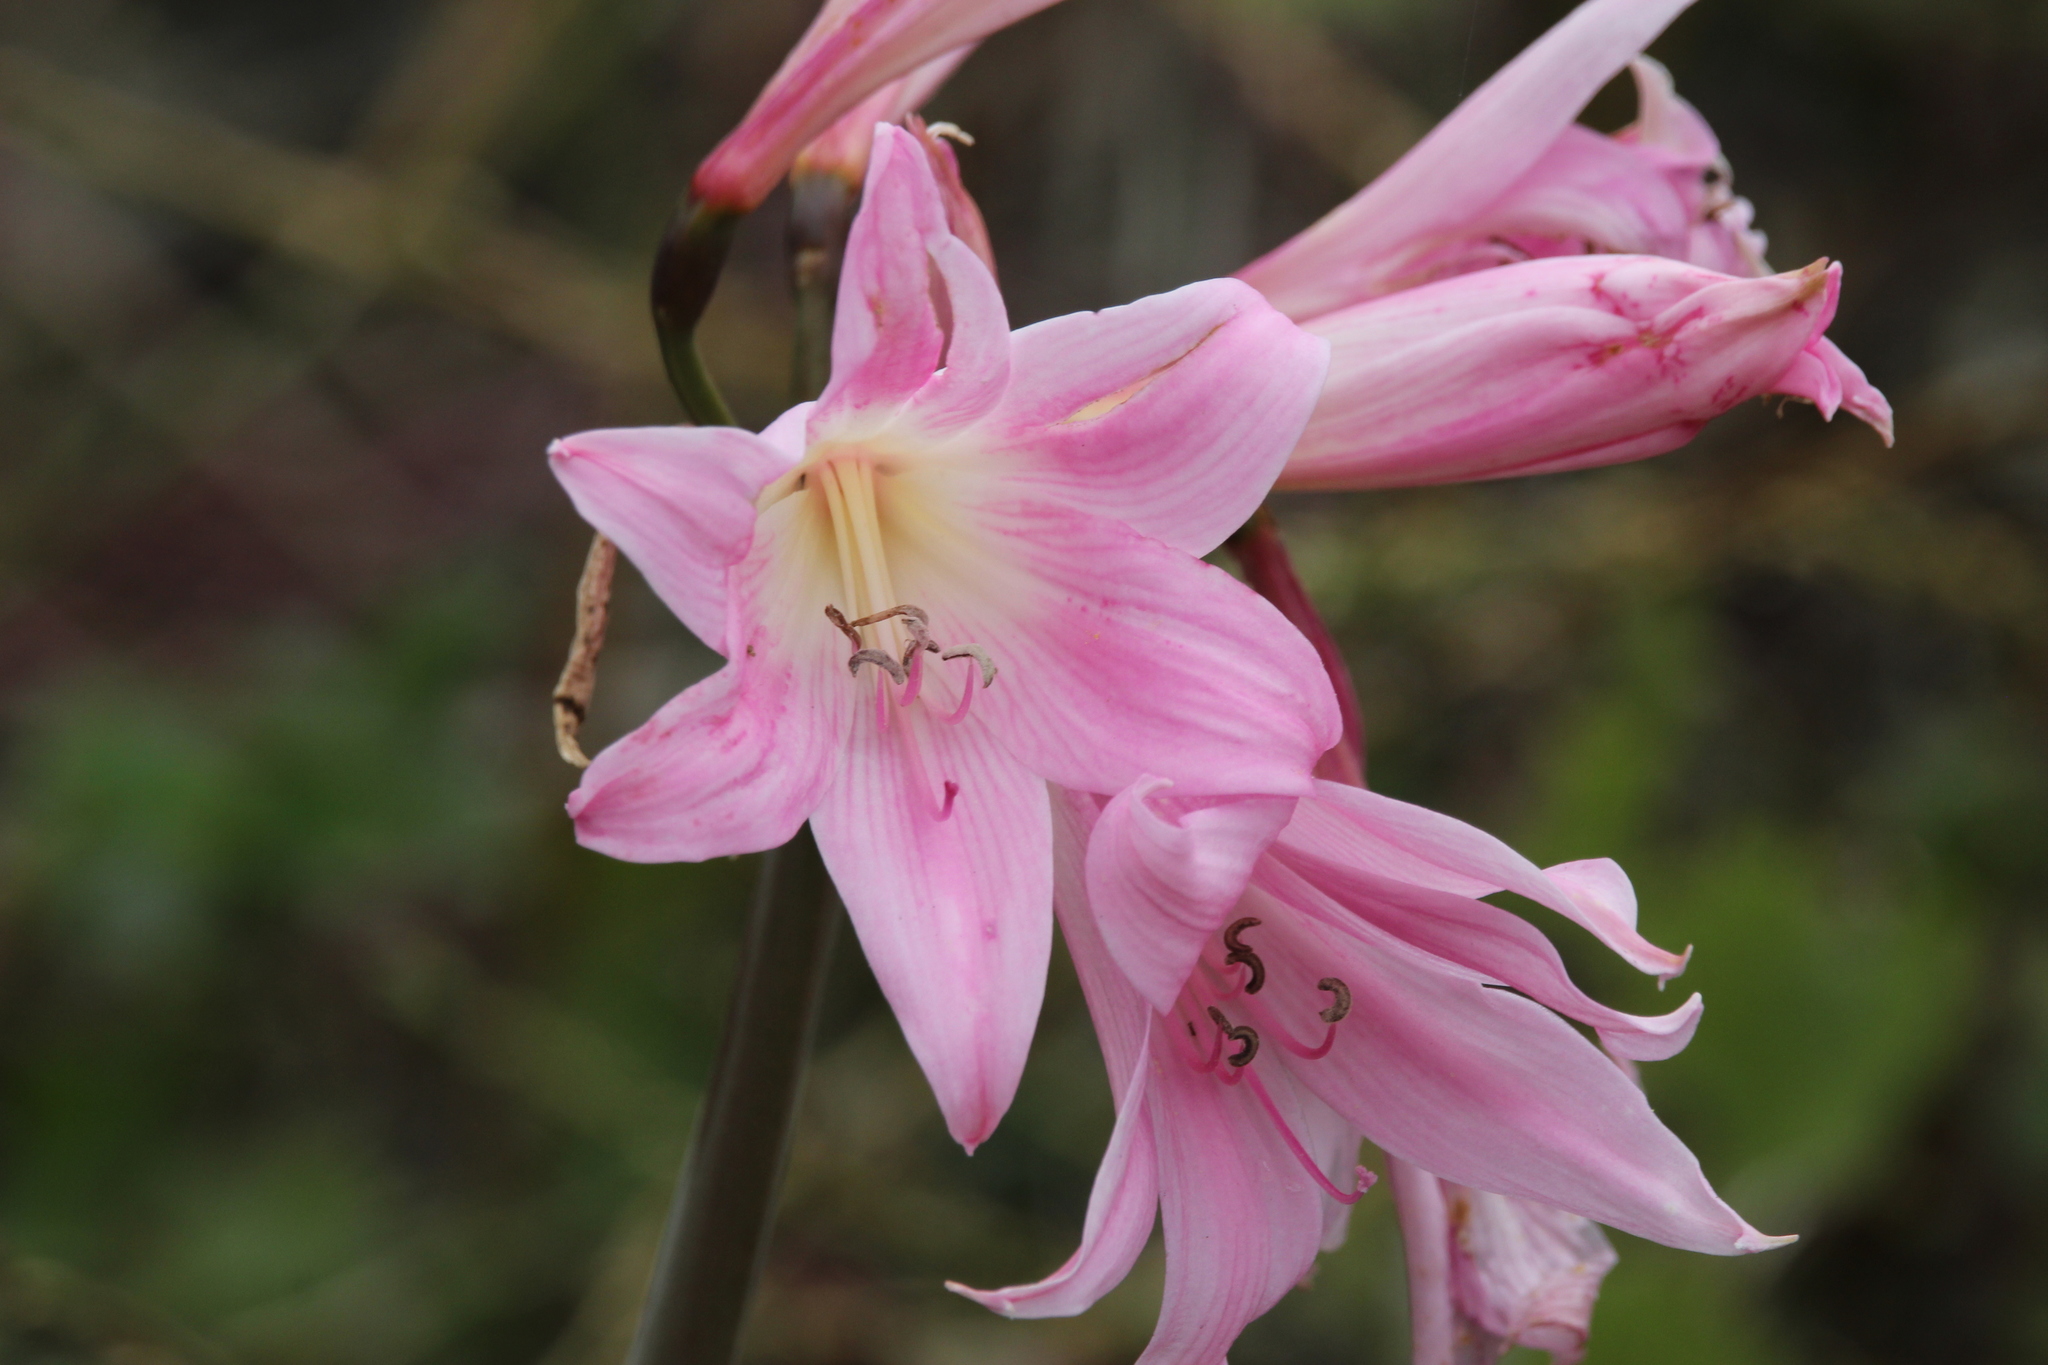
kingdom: Plantae
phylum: Tracheophyta
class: Liliopsida
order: Asparagales
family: Amaryllidaceae
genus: Amaryllis
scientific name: Amaryllis belladonna
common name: Jersey lily
